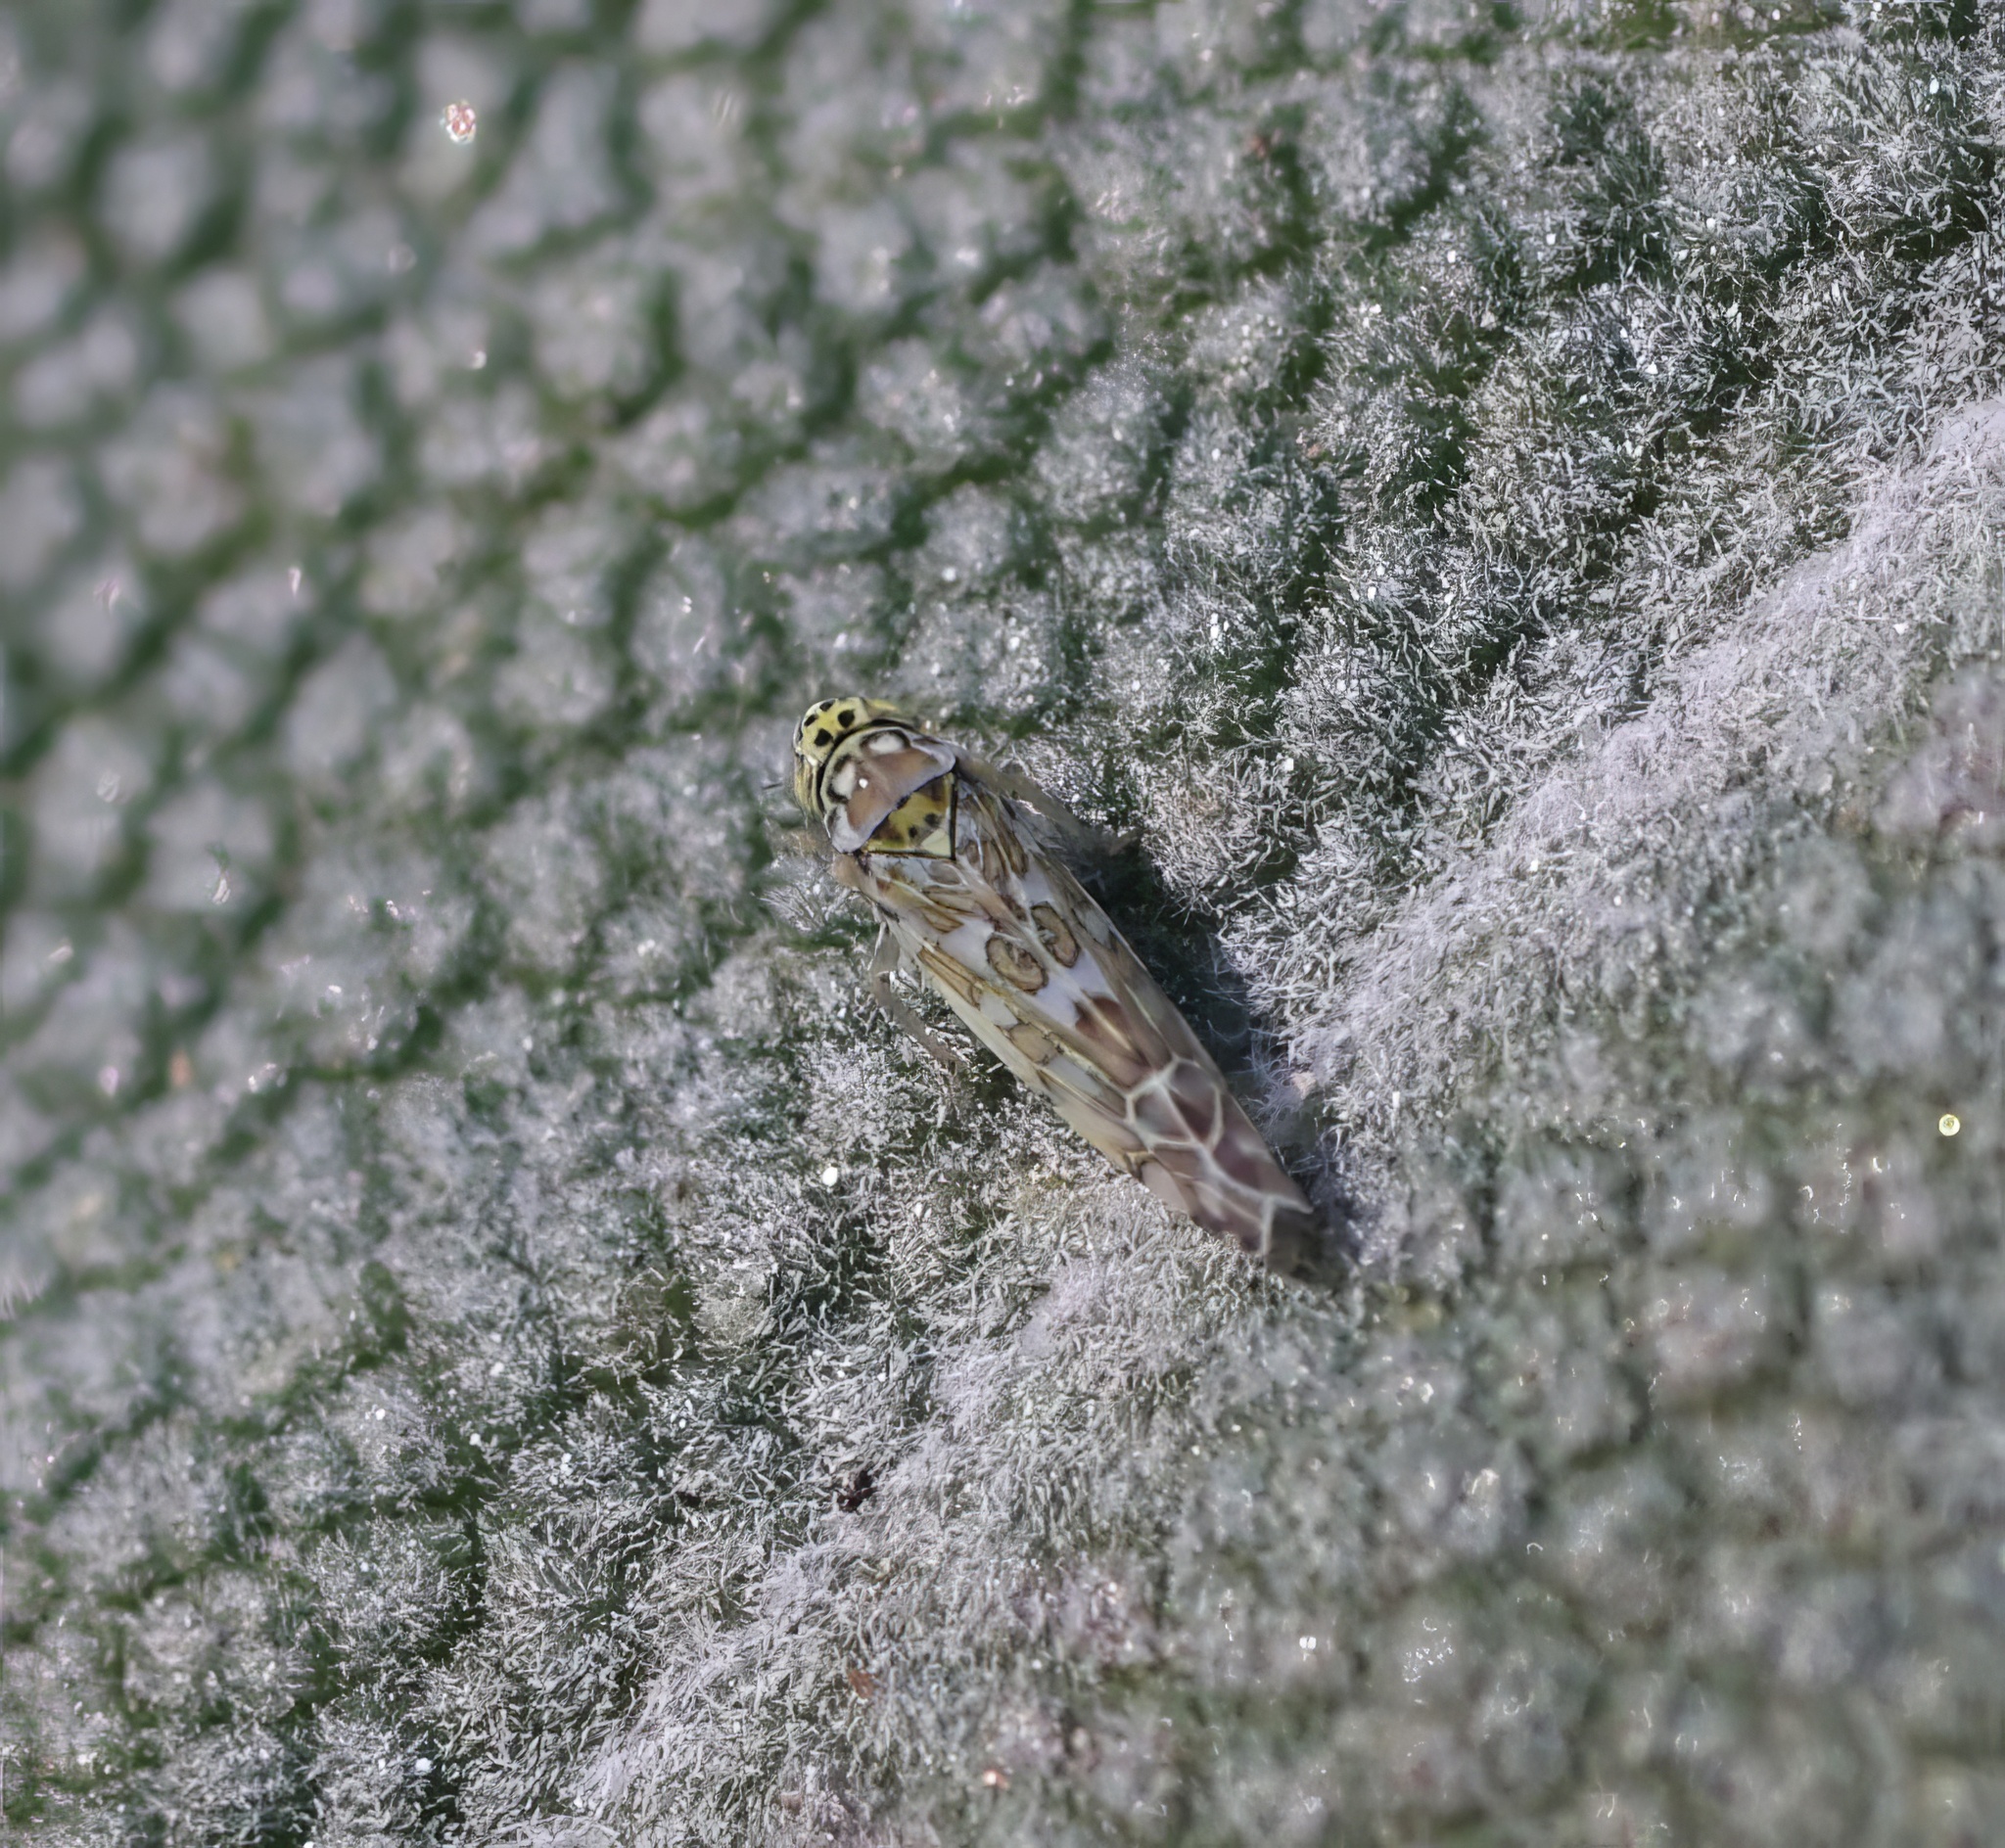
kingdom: Animalia
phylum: Arthropoda
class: Insecta
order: Hemiptera
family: Cicadellidae
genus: Eupteryx
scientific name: Eupteryx decemnotata
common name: Ligurian leafhopper
